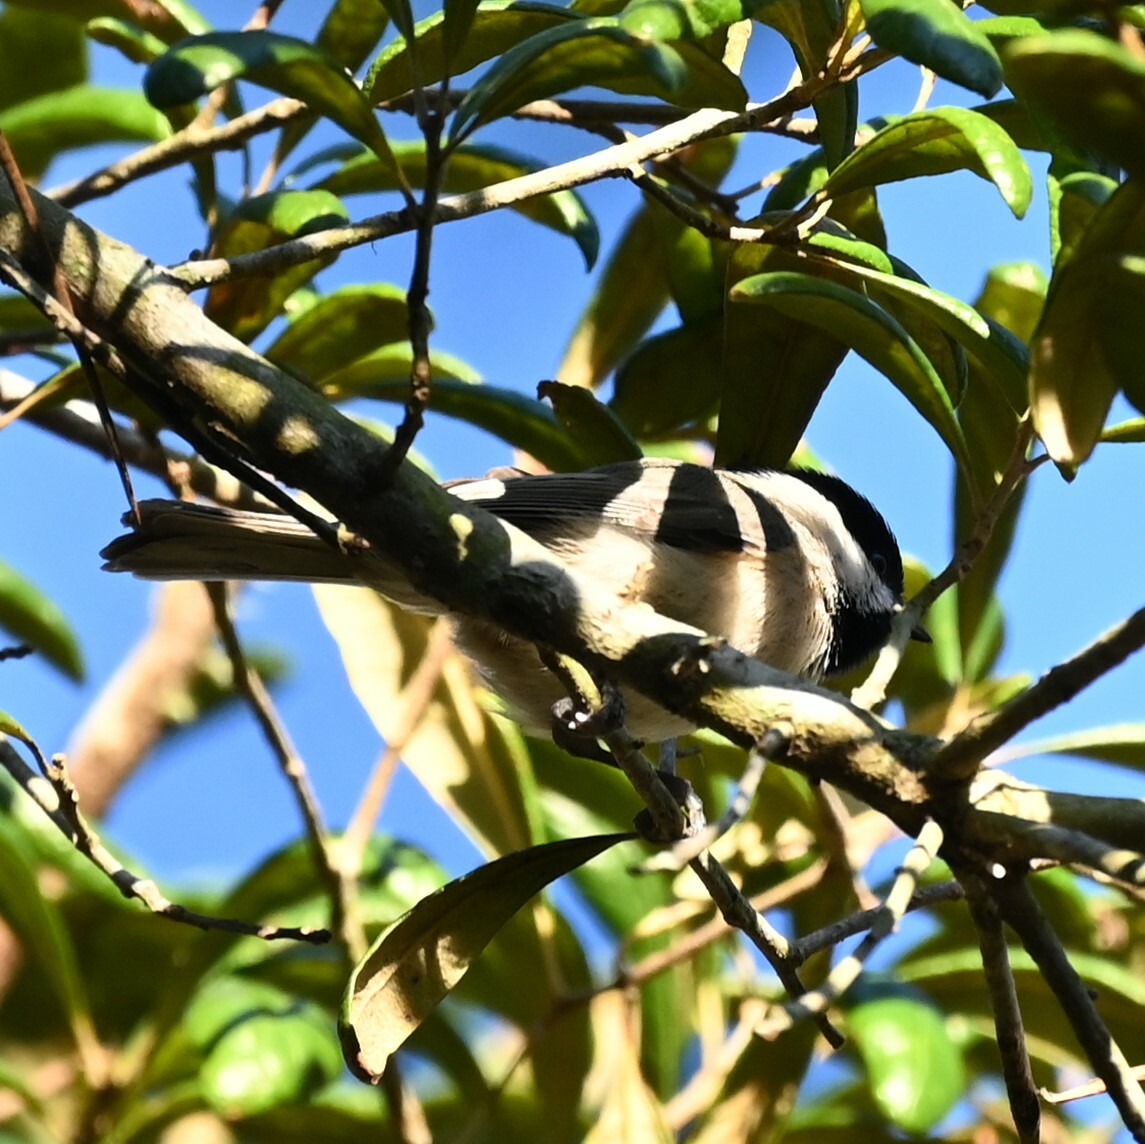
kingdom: Animalia
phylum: Chordata
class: Aves
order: Passeriformes
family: Paridae
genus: Poecile
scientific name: Poecile carolinensis
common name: Carolina chickadee
